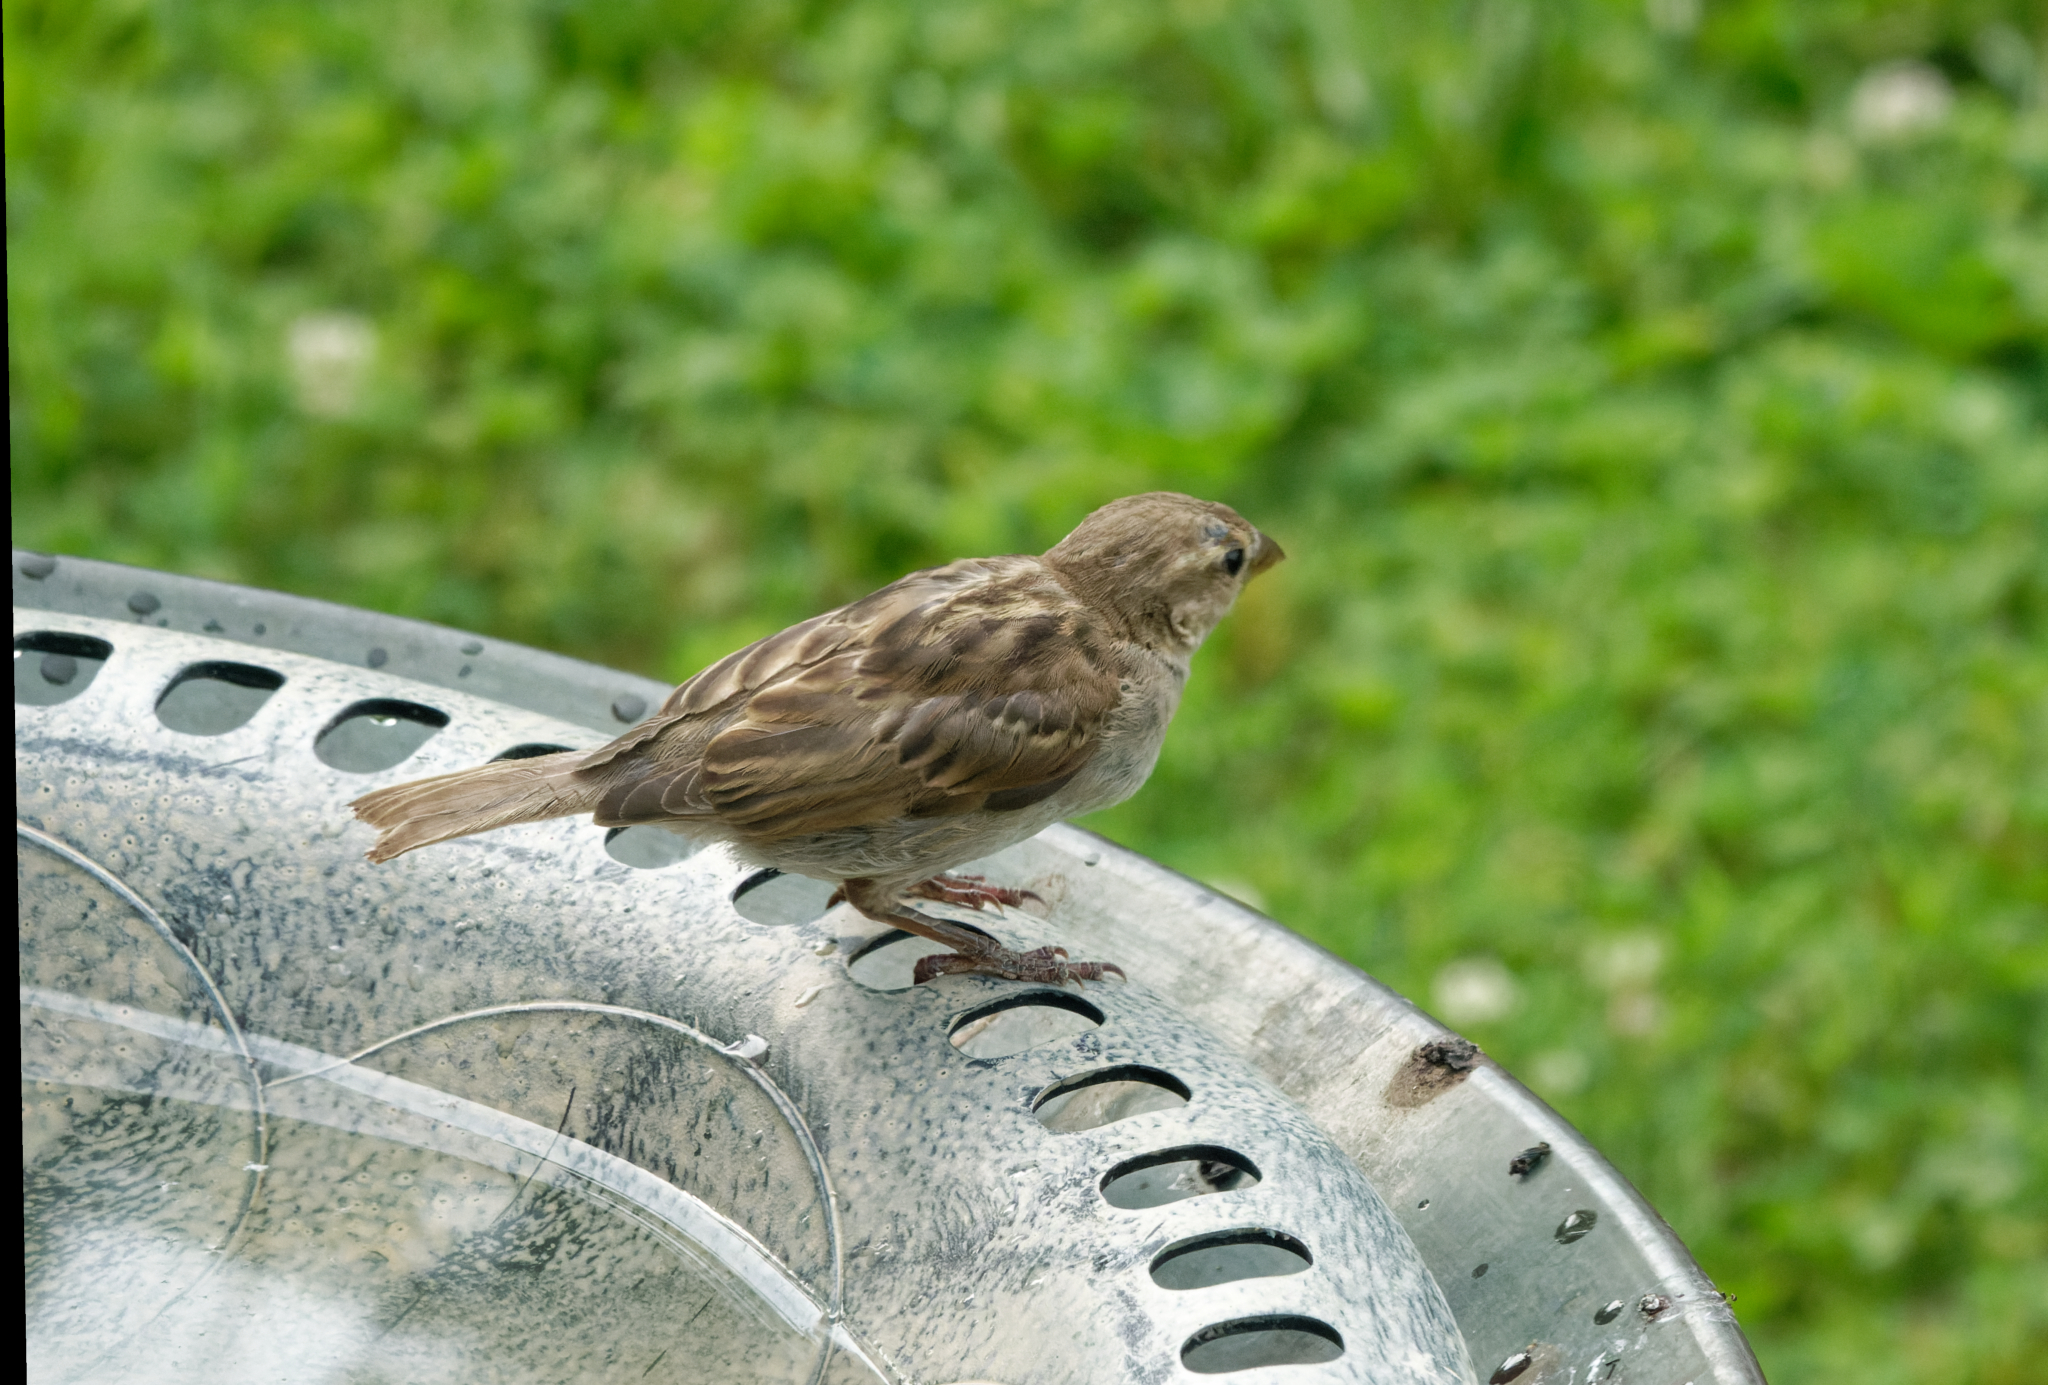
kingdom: Animalia
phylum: Chordata
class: Aves
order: Passeriformes
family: Passeridae
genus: Passer
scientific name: Passer domesticus
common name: House sparrow
